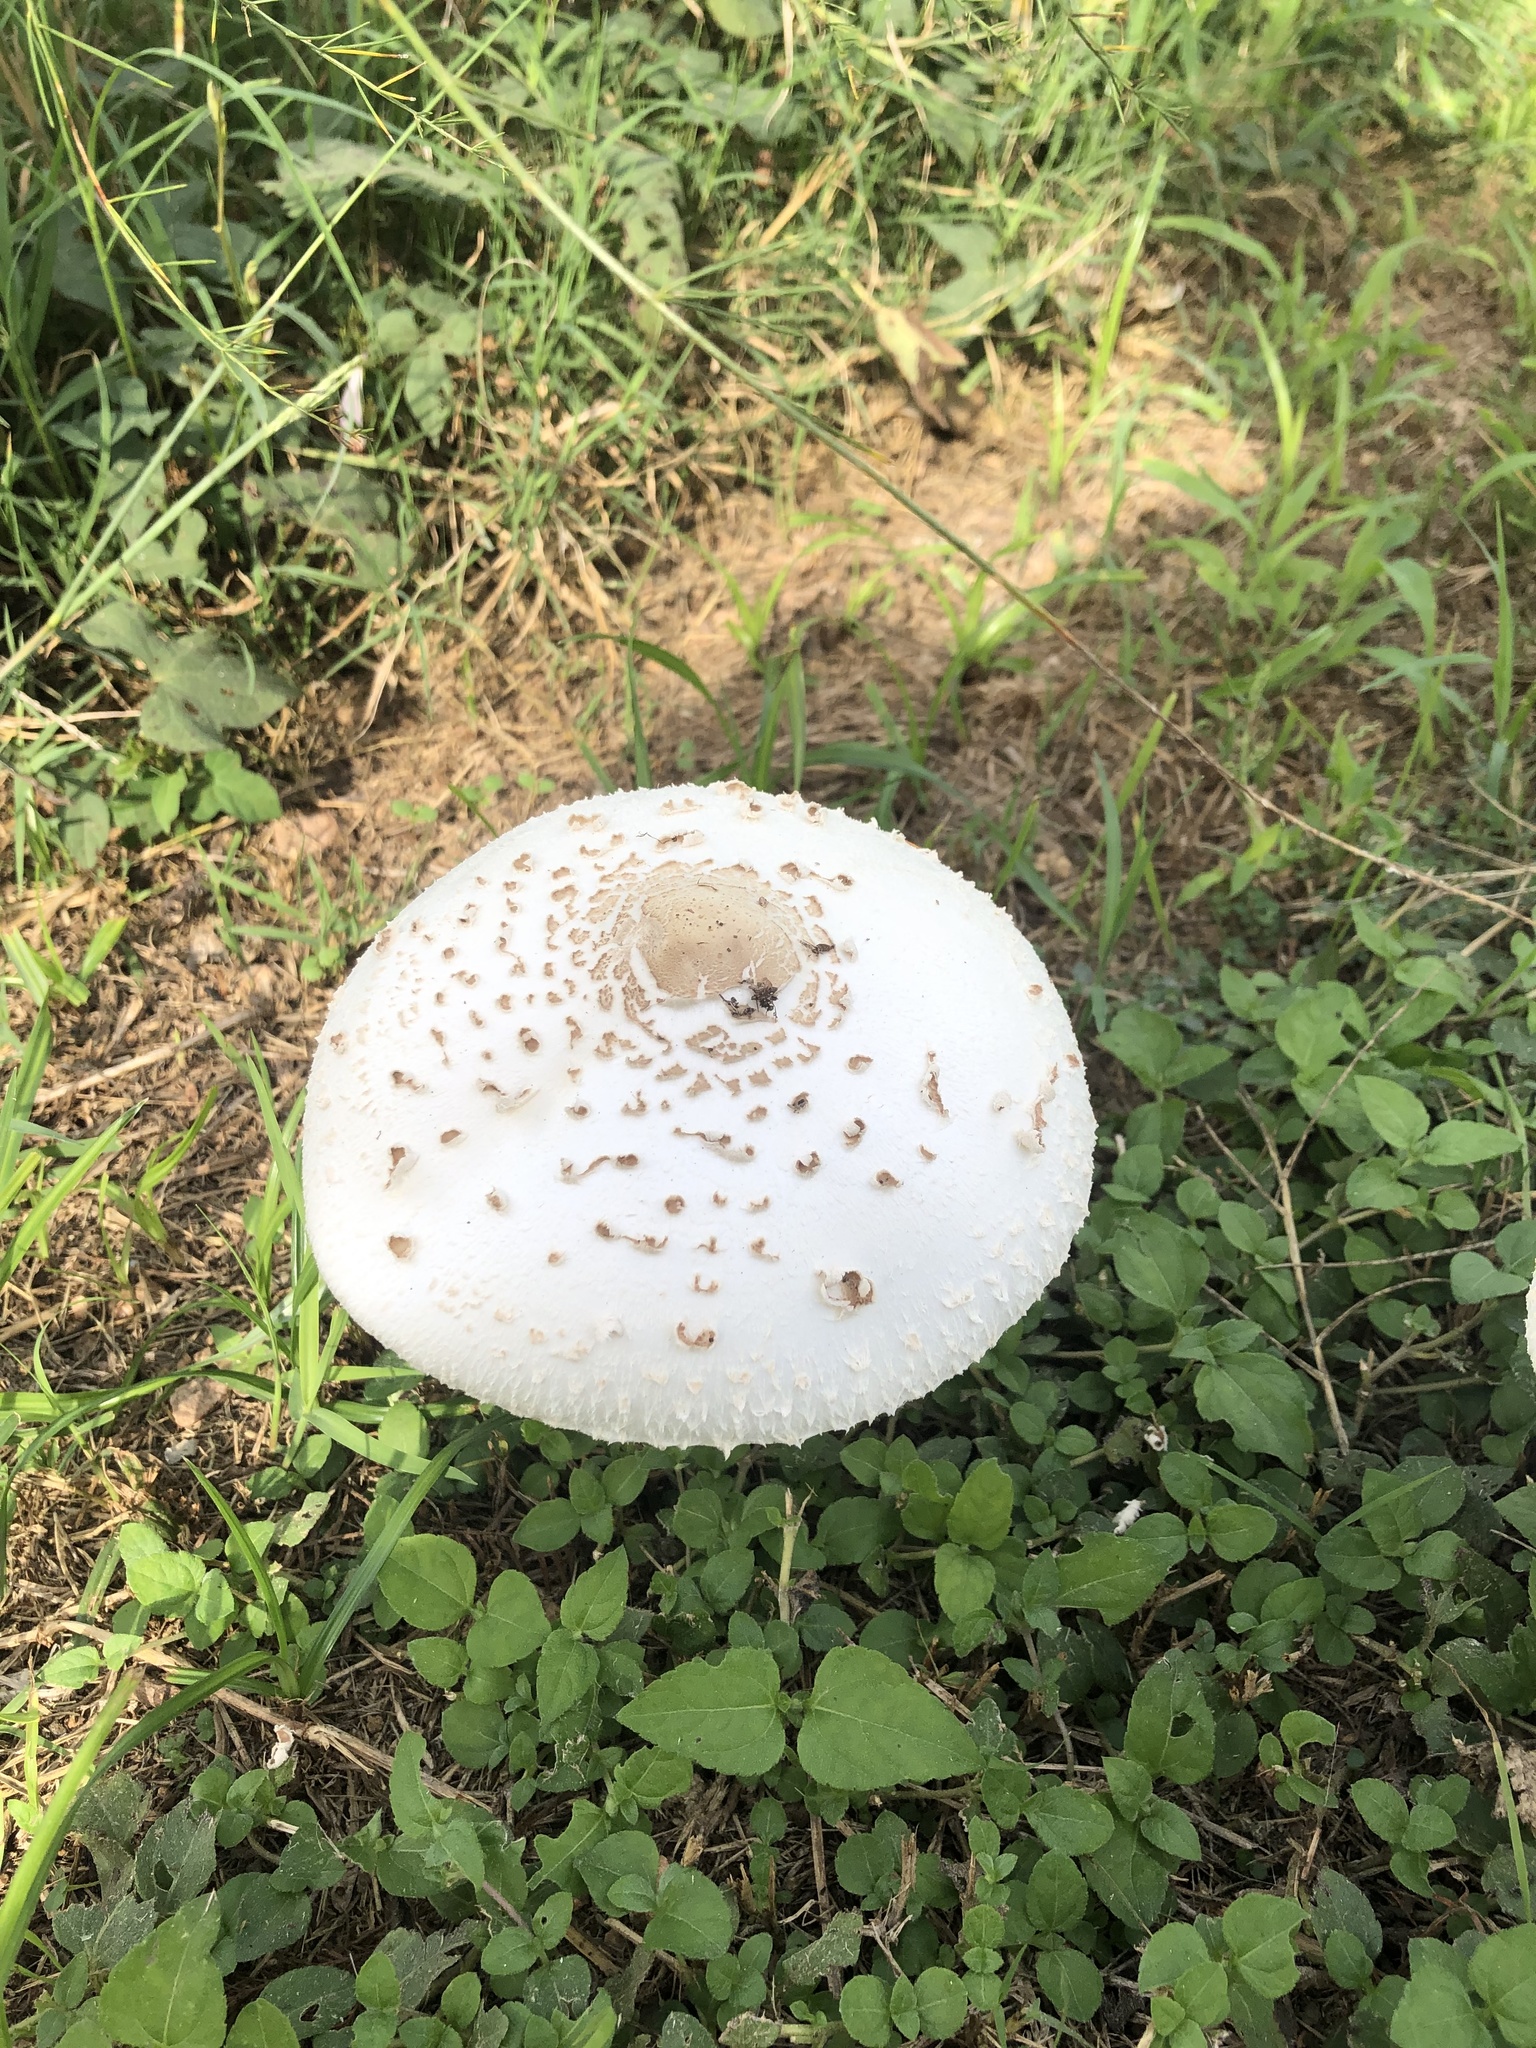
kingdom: Fungi
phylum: Basidiomycota
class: Agaricomycetes
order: Agaricales
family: Agaricaceae
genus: Chlorophyllum
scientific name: Chlorophyllum molybdites
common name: False parasol
